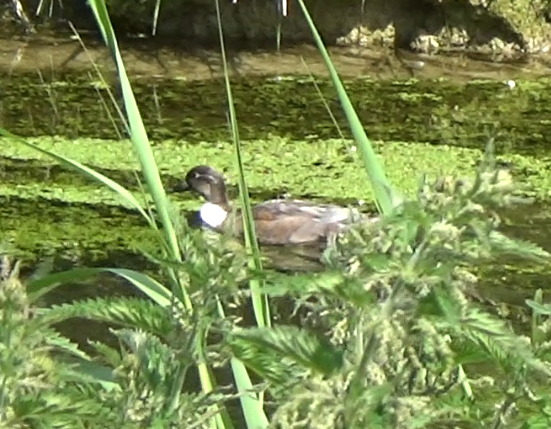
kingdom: Animalia
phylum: Chordata
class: Aves
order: Anseriformes
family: Anatidae
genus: Anas
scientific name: Anas platyrhynchos
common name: Mallard
